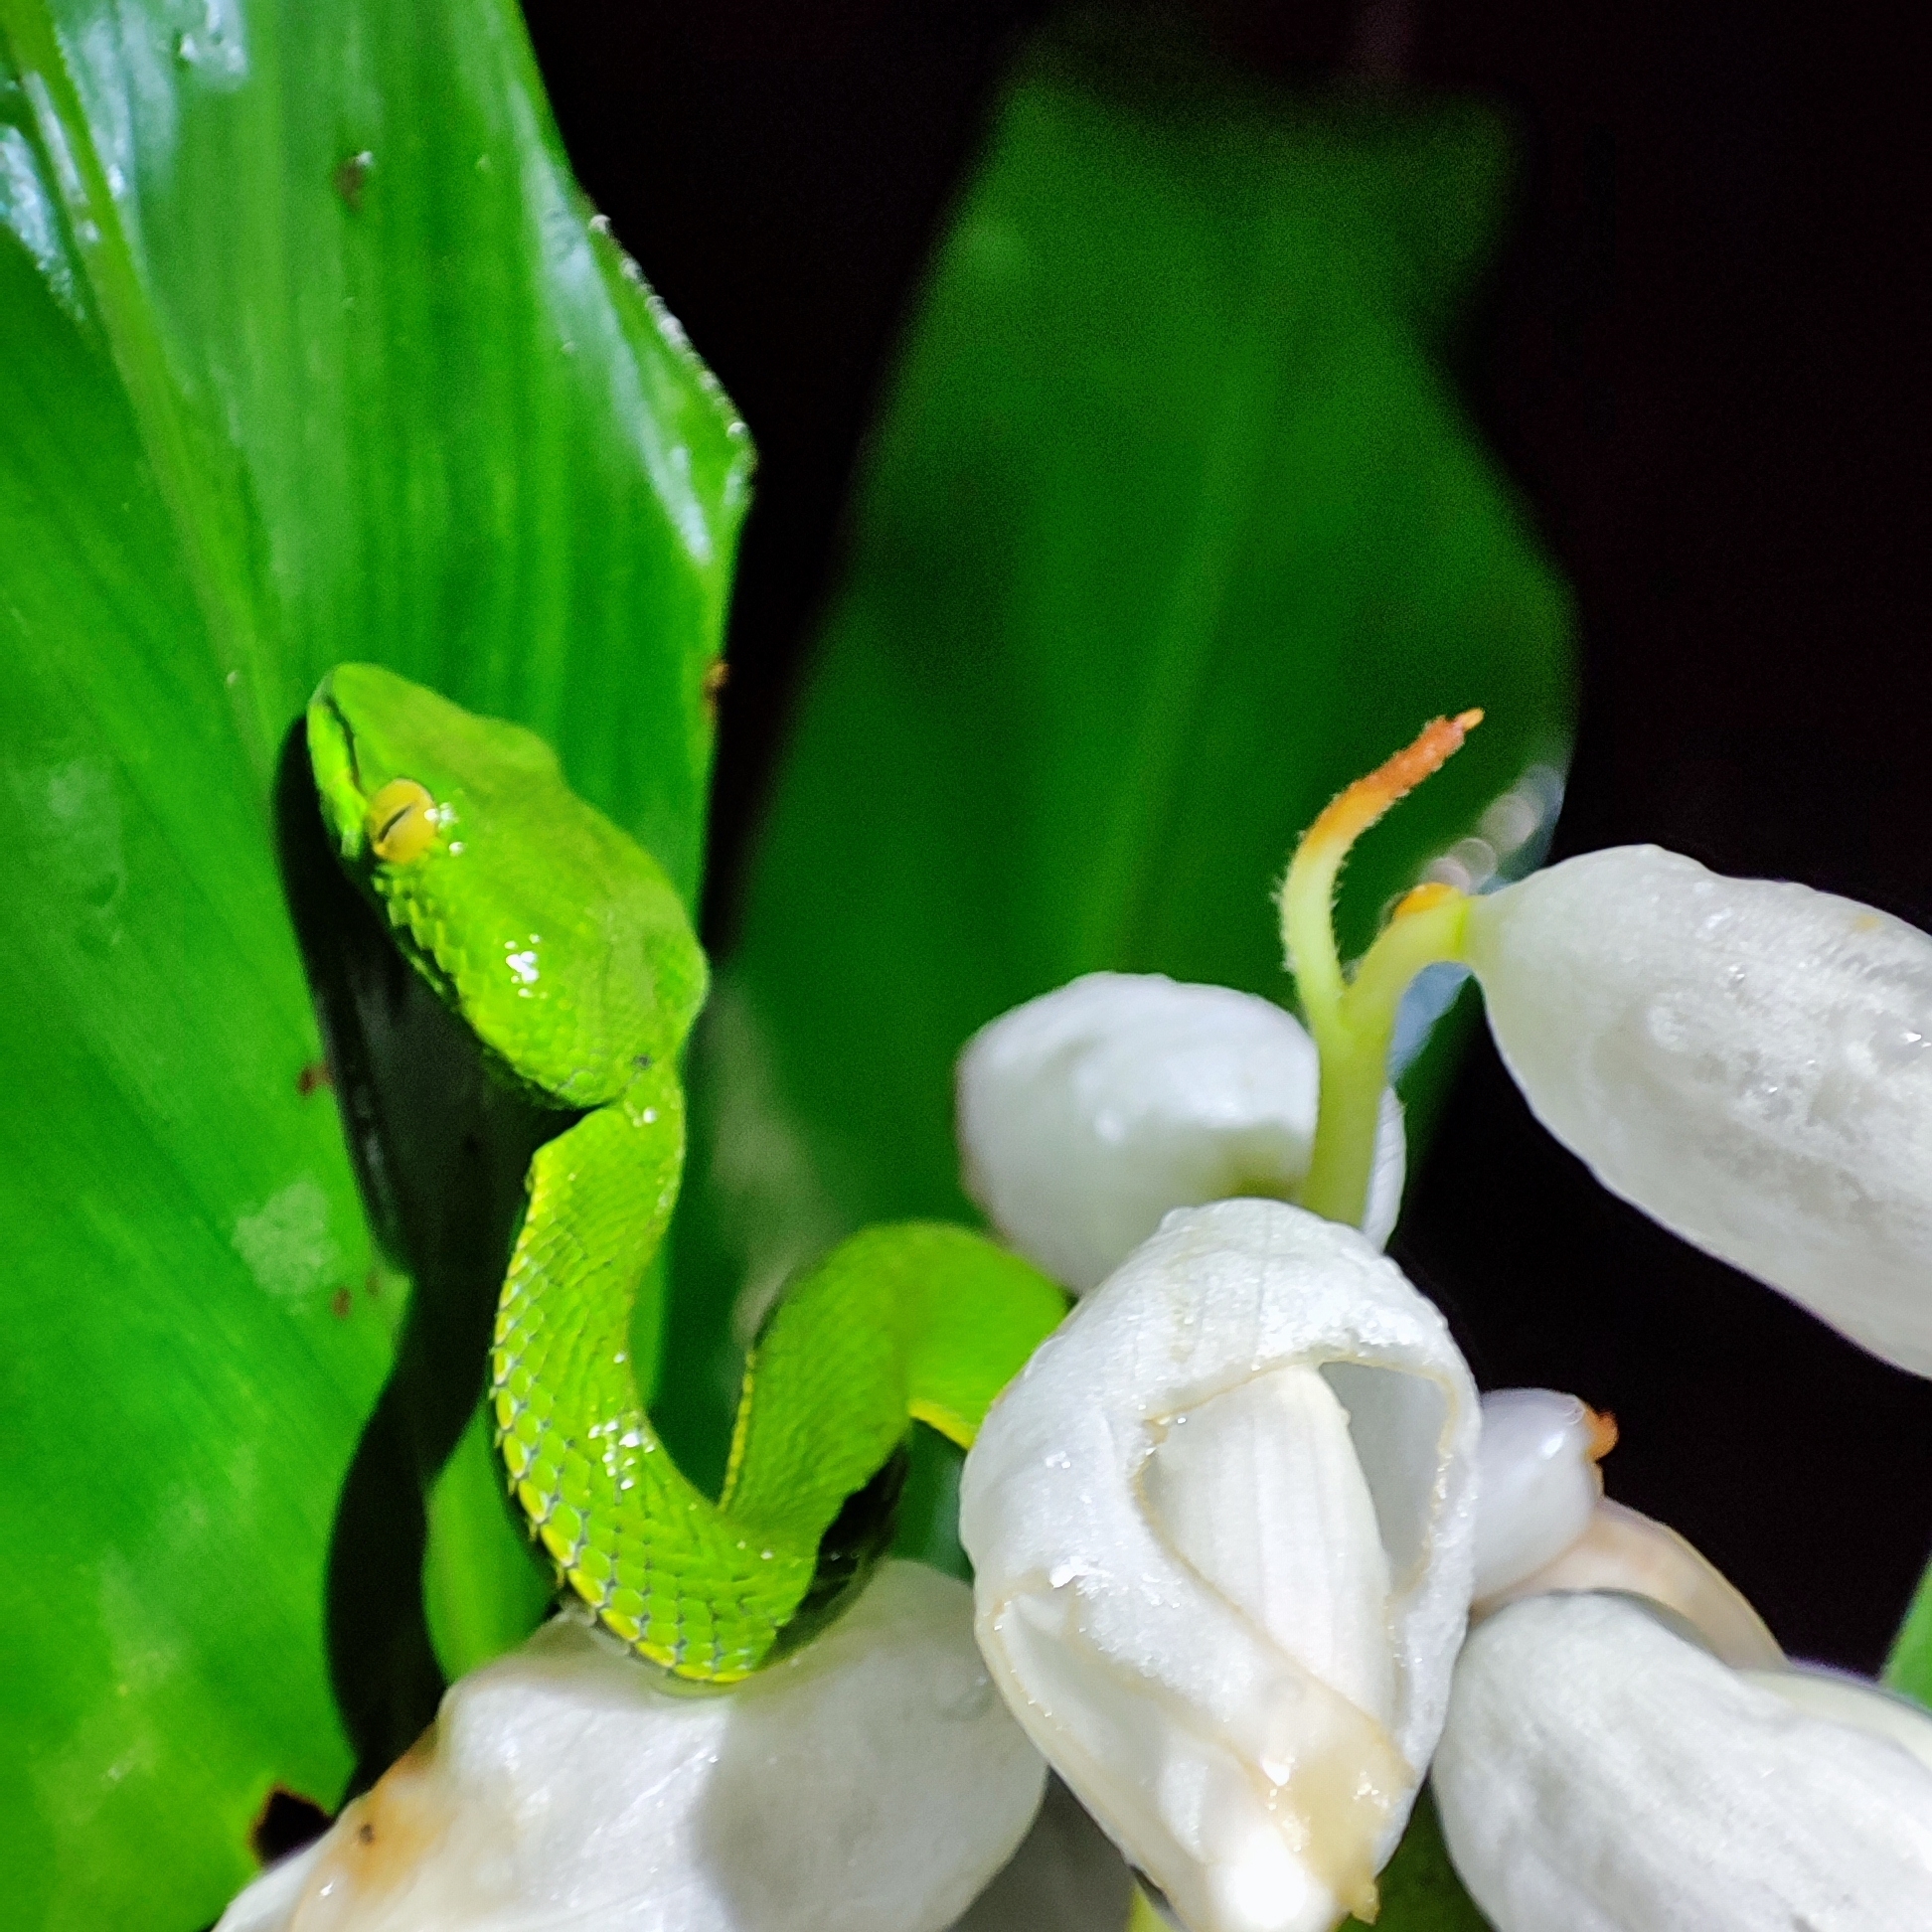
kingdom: Animalia
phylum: Chordata
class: Squamata
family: Viperidae
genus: Trimeresurus
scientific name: Trimeresurus vogeli
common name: Vogel's pit viper
